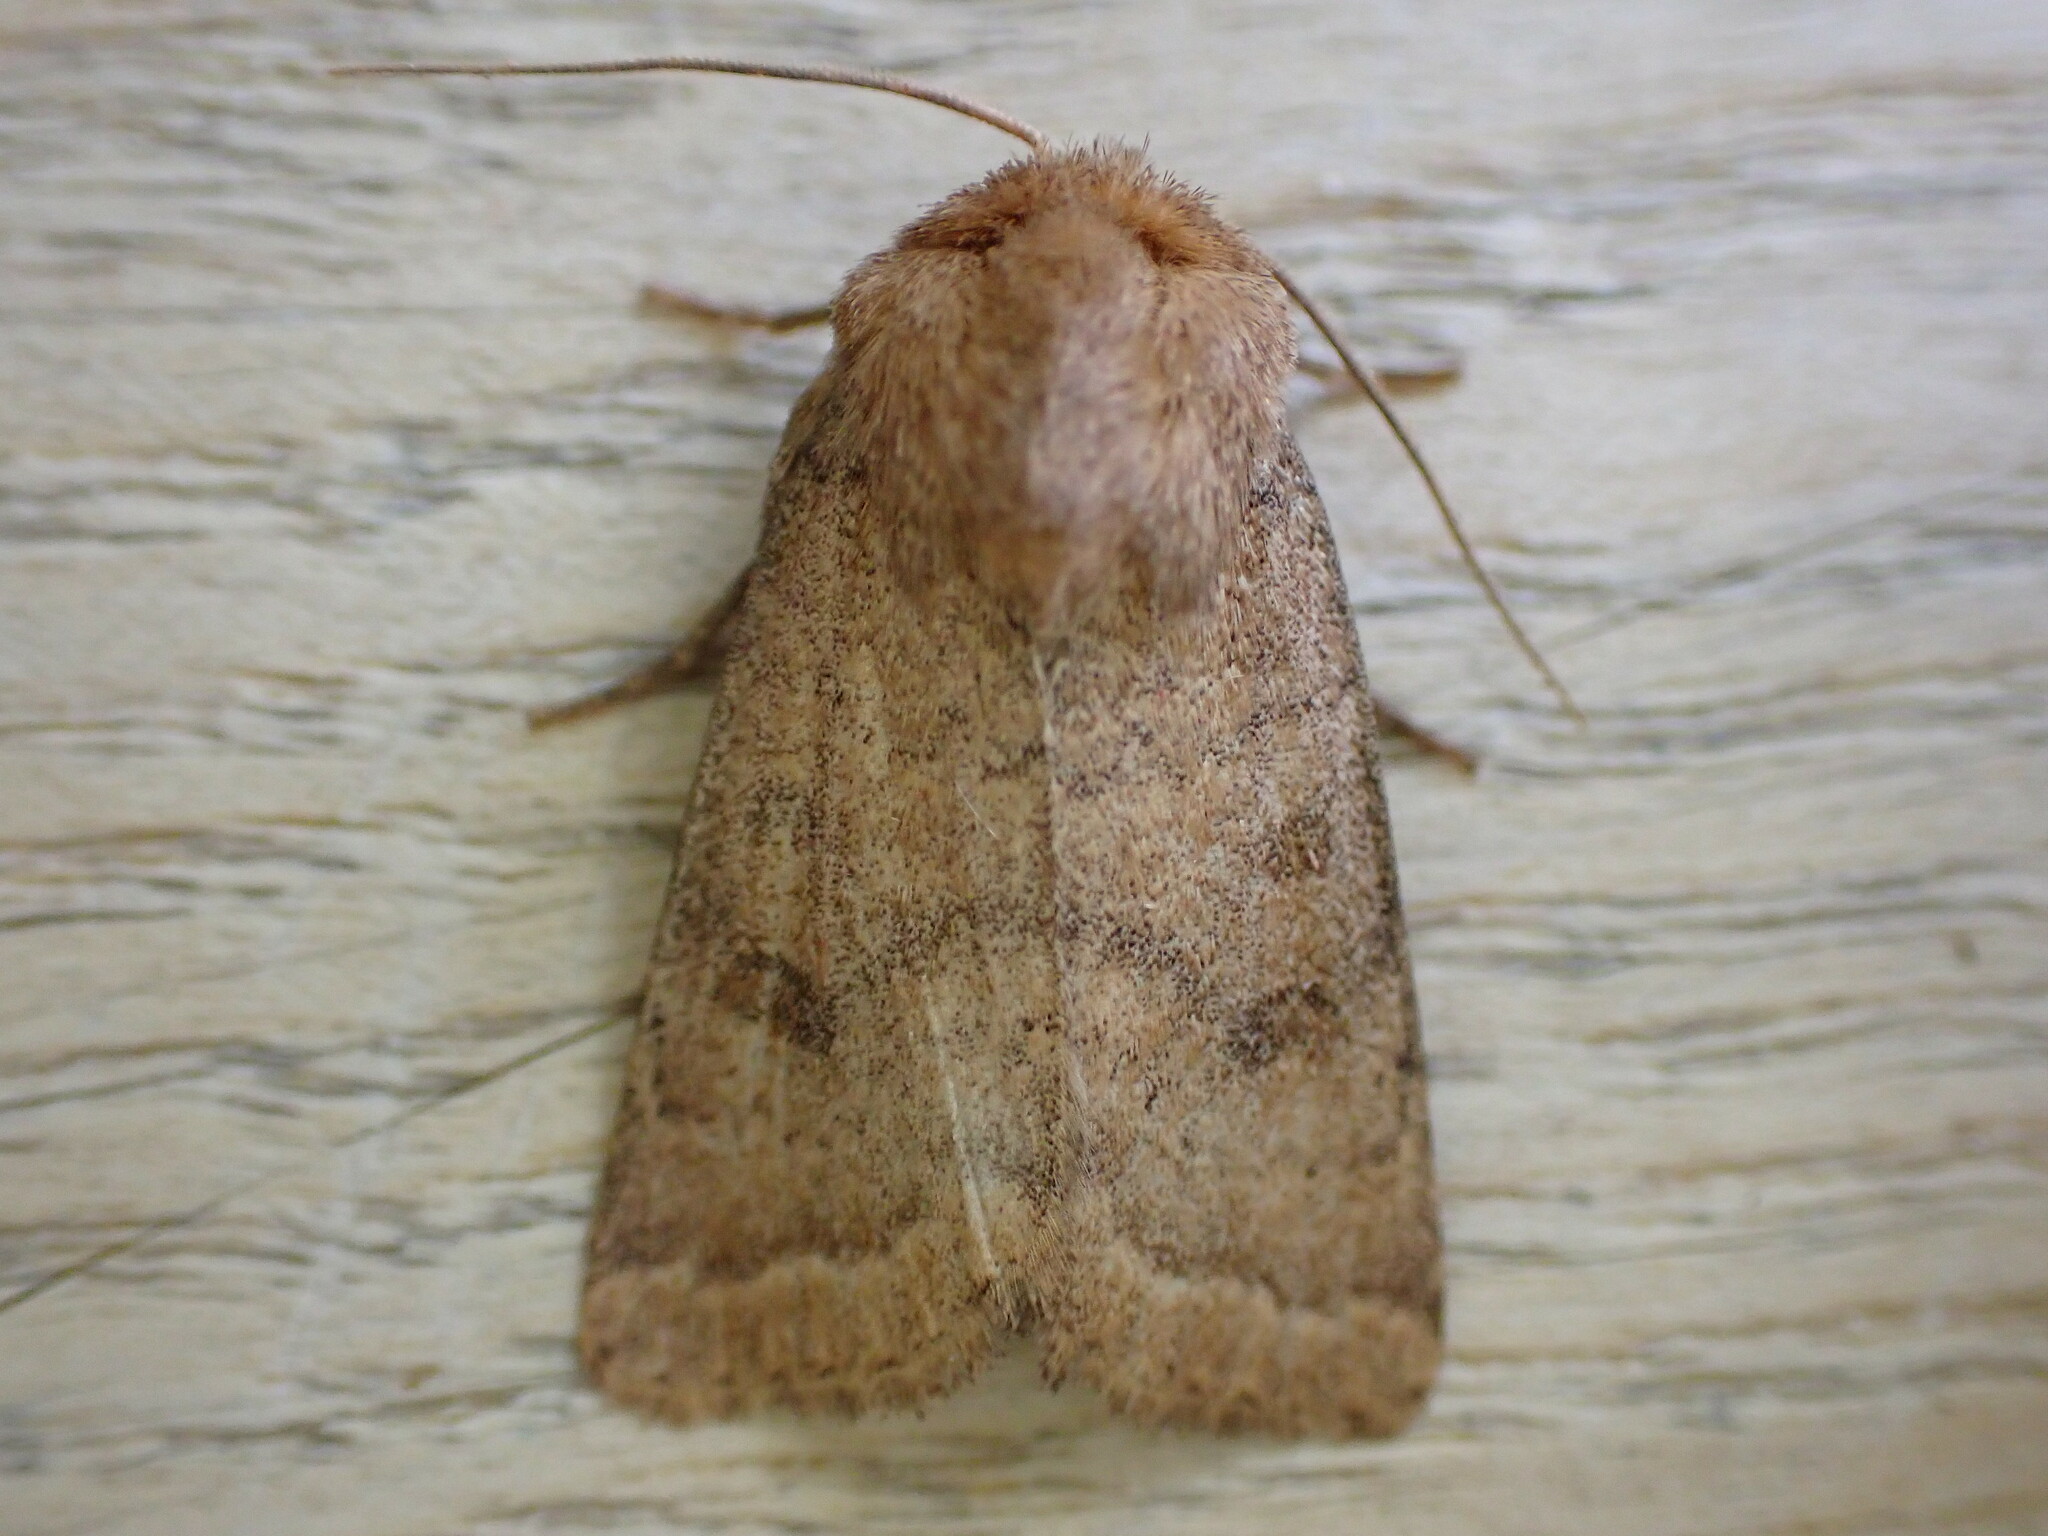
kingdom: Animalia
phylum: Arthropoda
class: Insecta
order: Lepidoptera
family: Noctuidae
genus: Hoplodrina
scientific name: Hoplodrina octogenaria
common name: Uncertain
